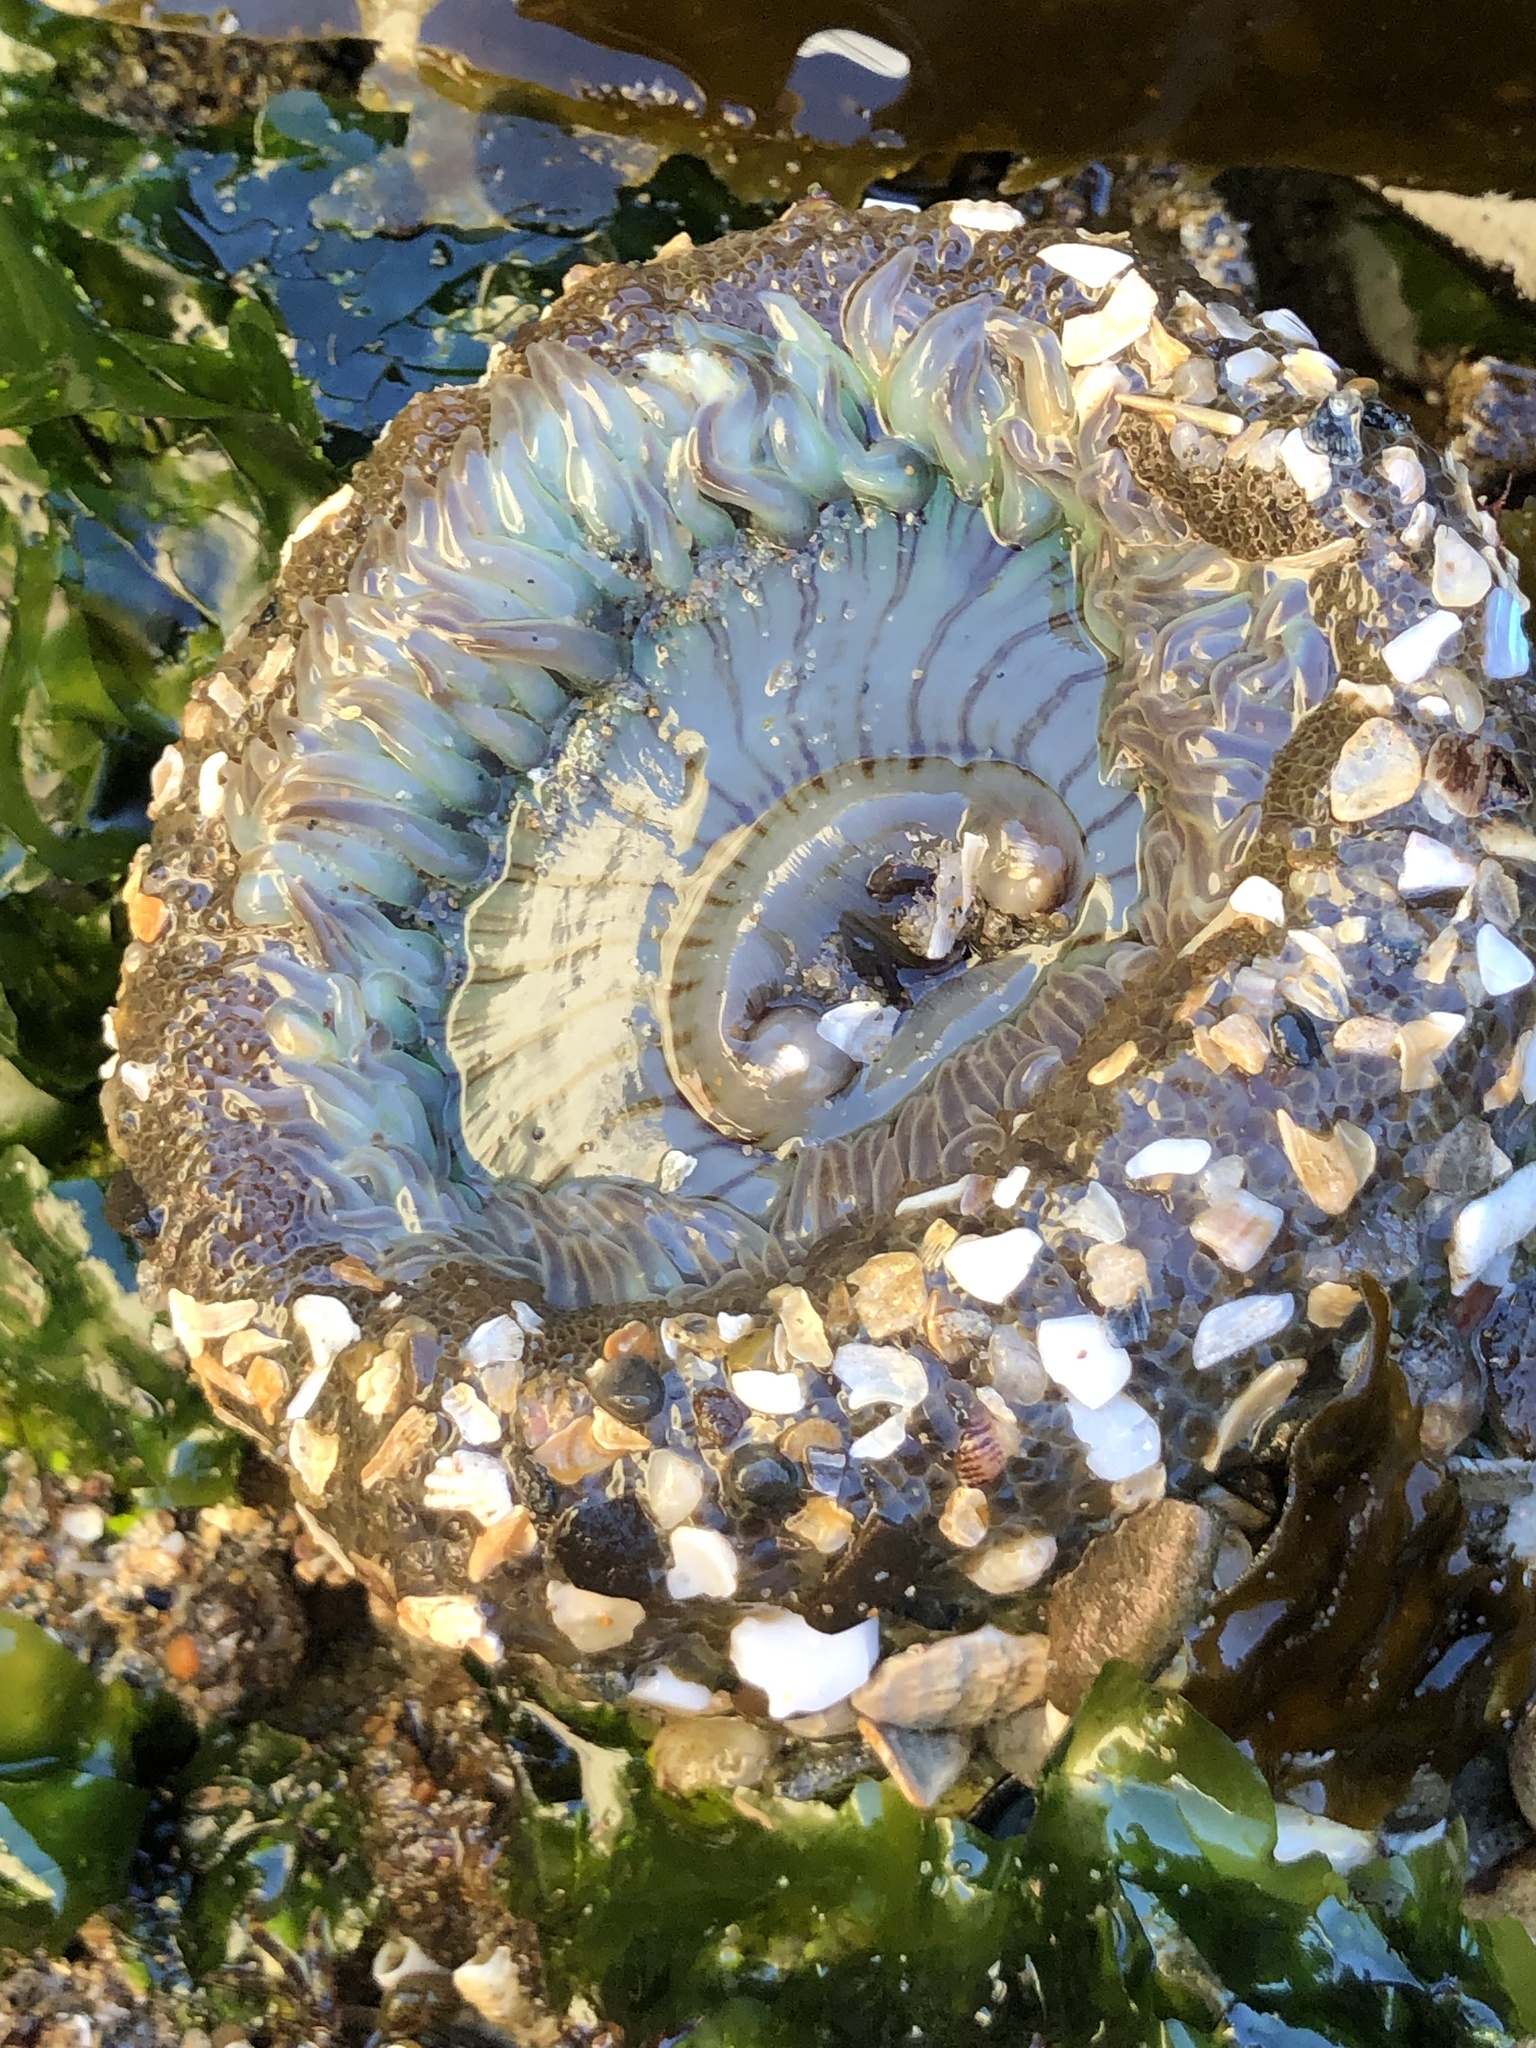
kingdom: Animalia
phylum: Cnidaria
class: Anthozoa
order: Actiniaria
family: Actiniidae
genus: Anthopleura
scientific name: Anthopleura sola
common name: Sun anemone
